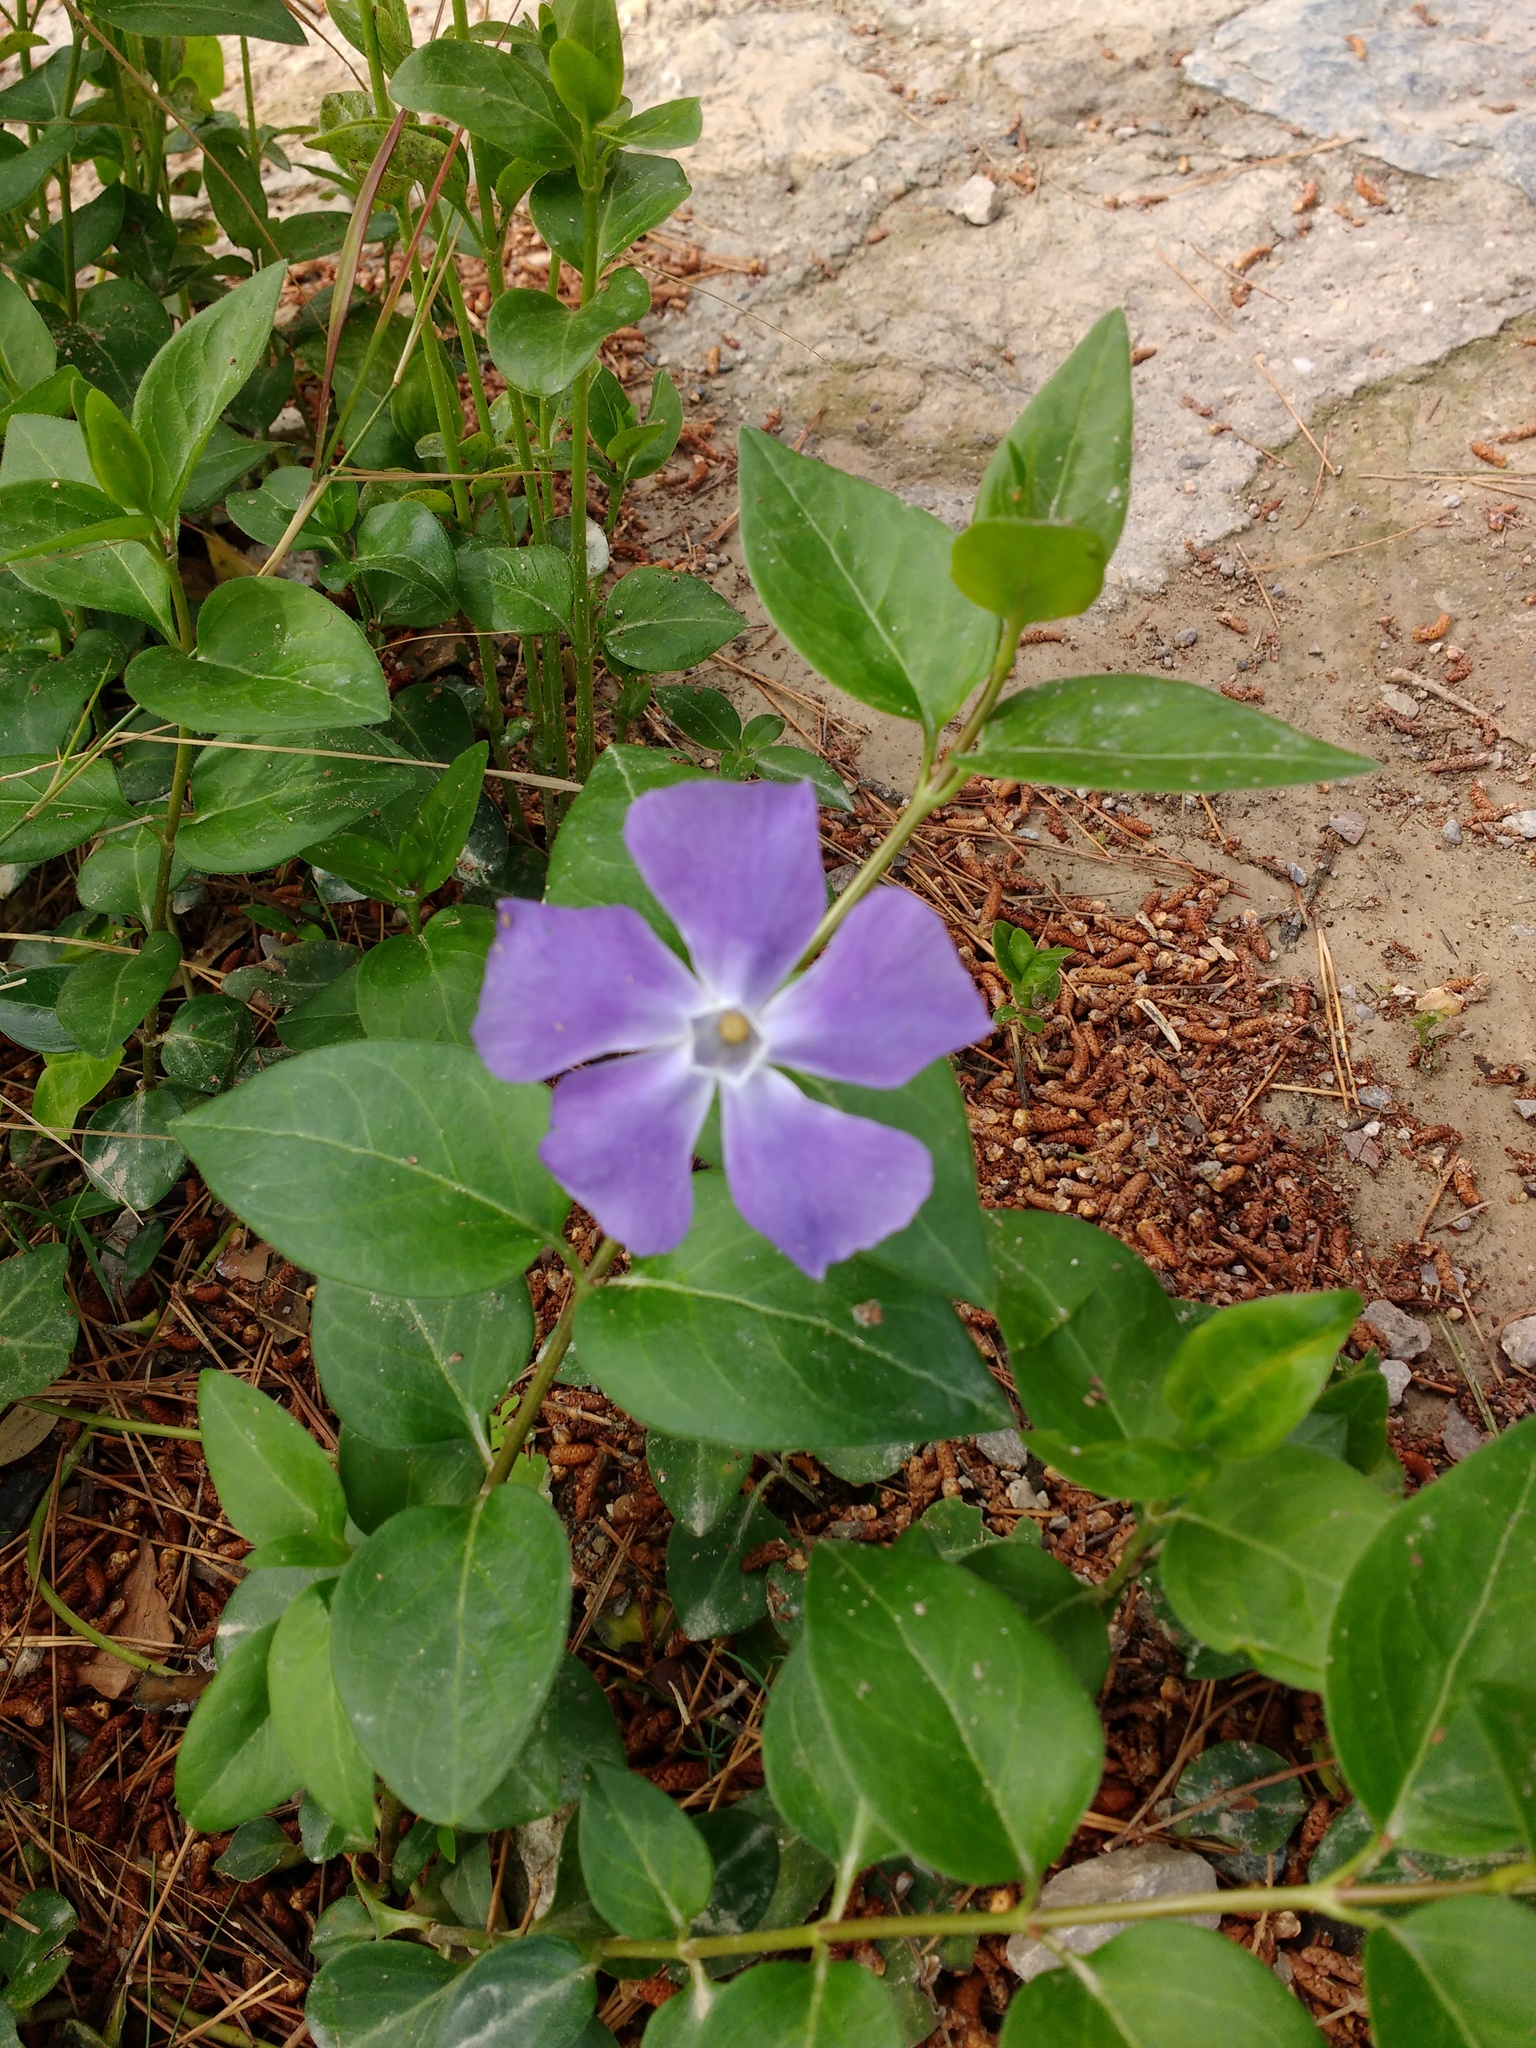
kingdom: Plantae
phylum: Tracheophyta
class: Magnoliopsida
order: Gentianales
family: Apocynaceae
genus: Vinca
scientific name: Vinca major
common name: Greater periwinkle
